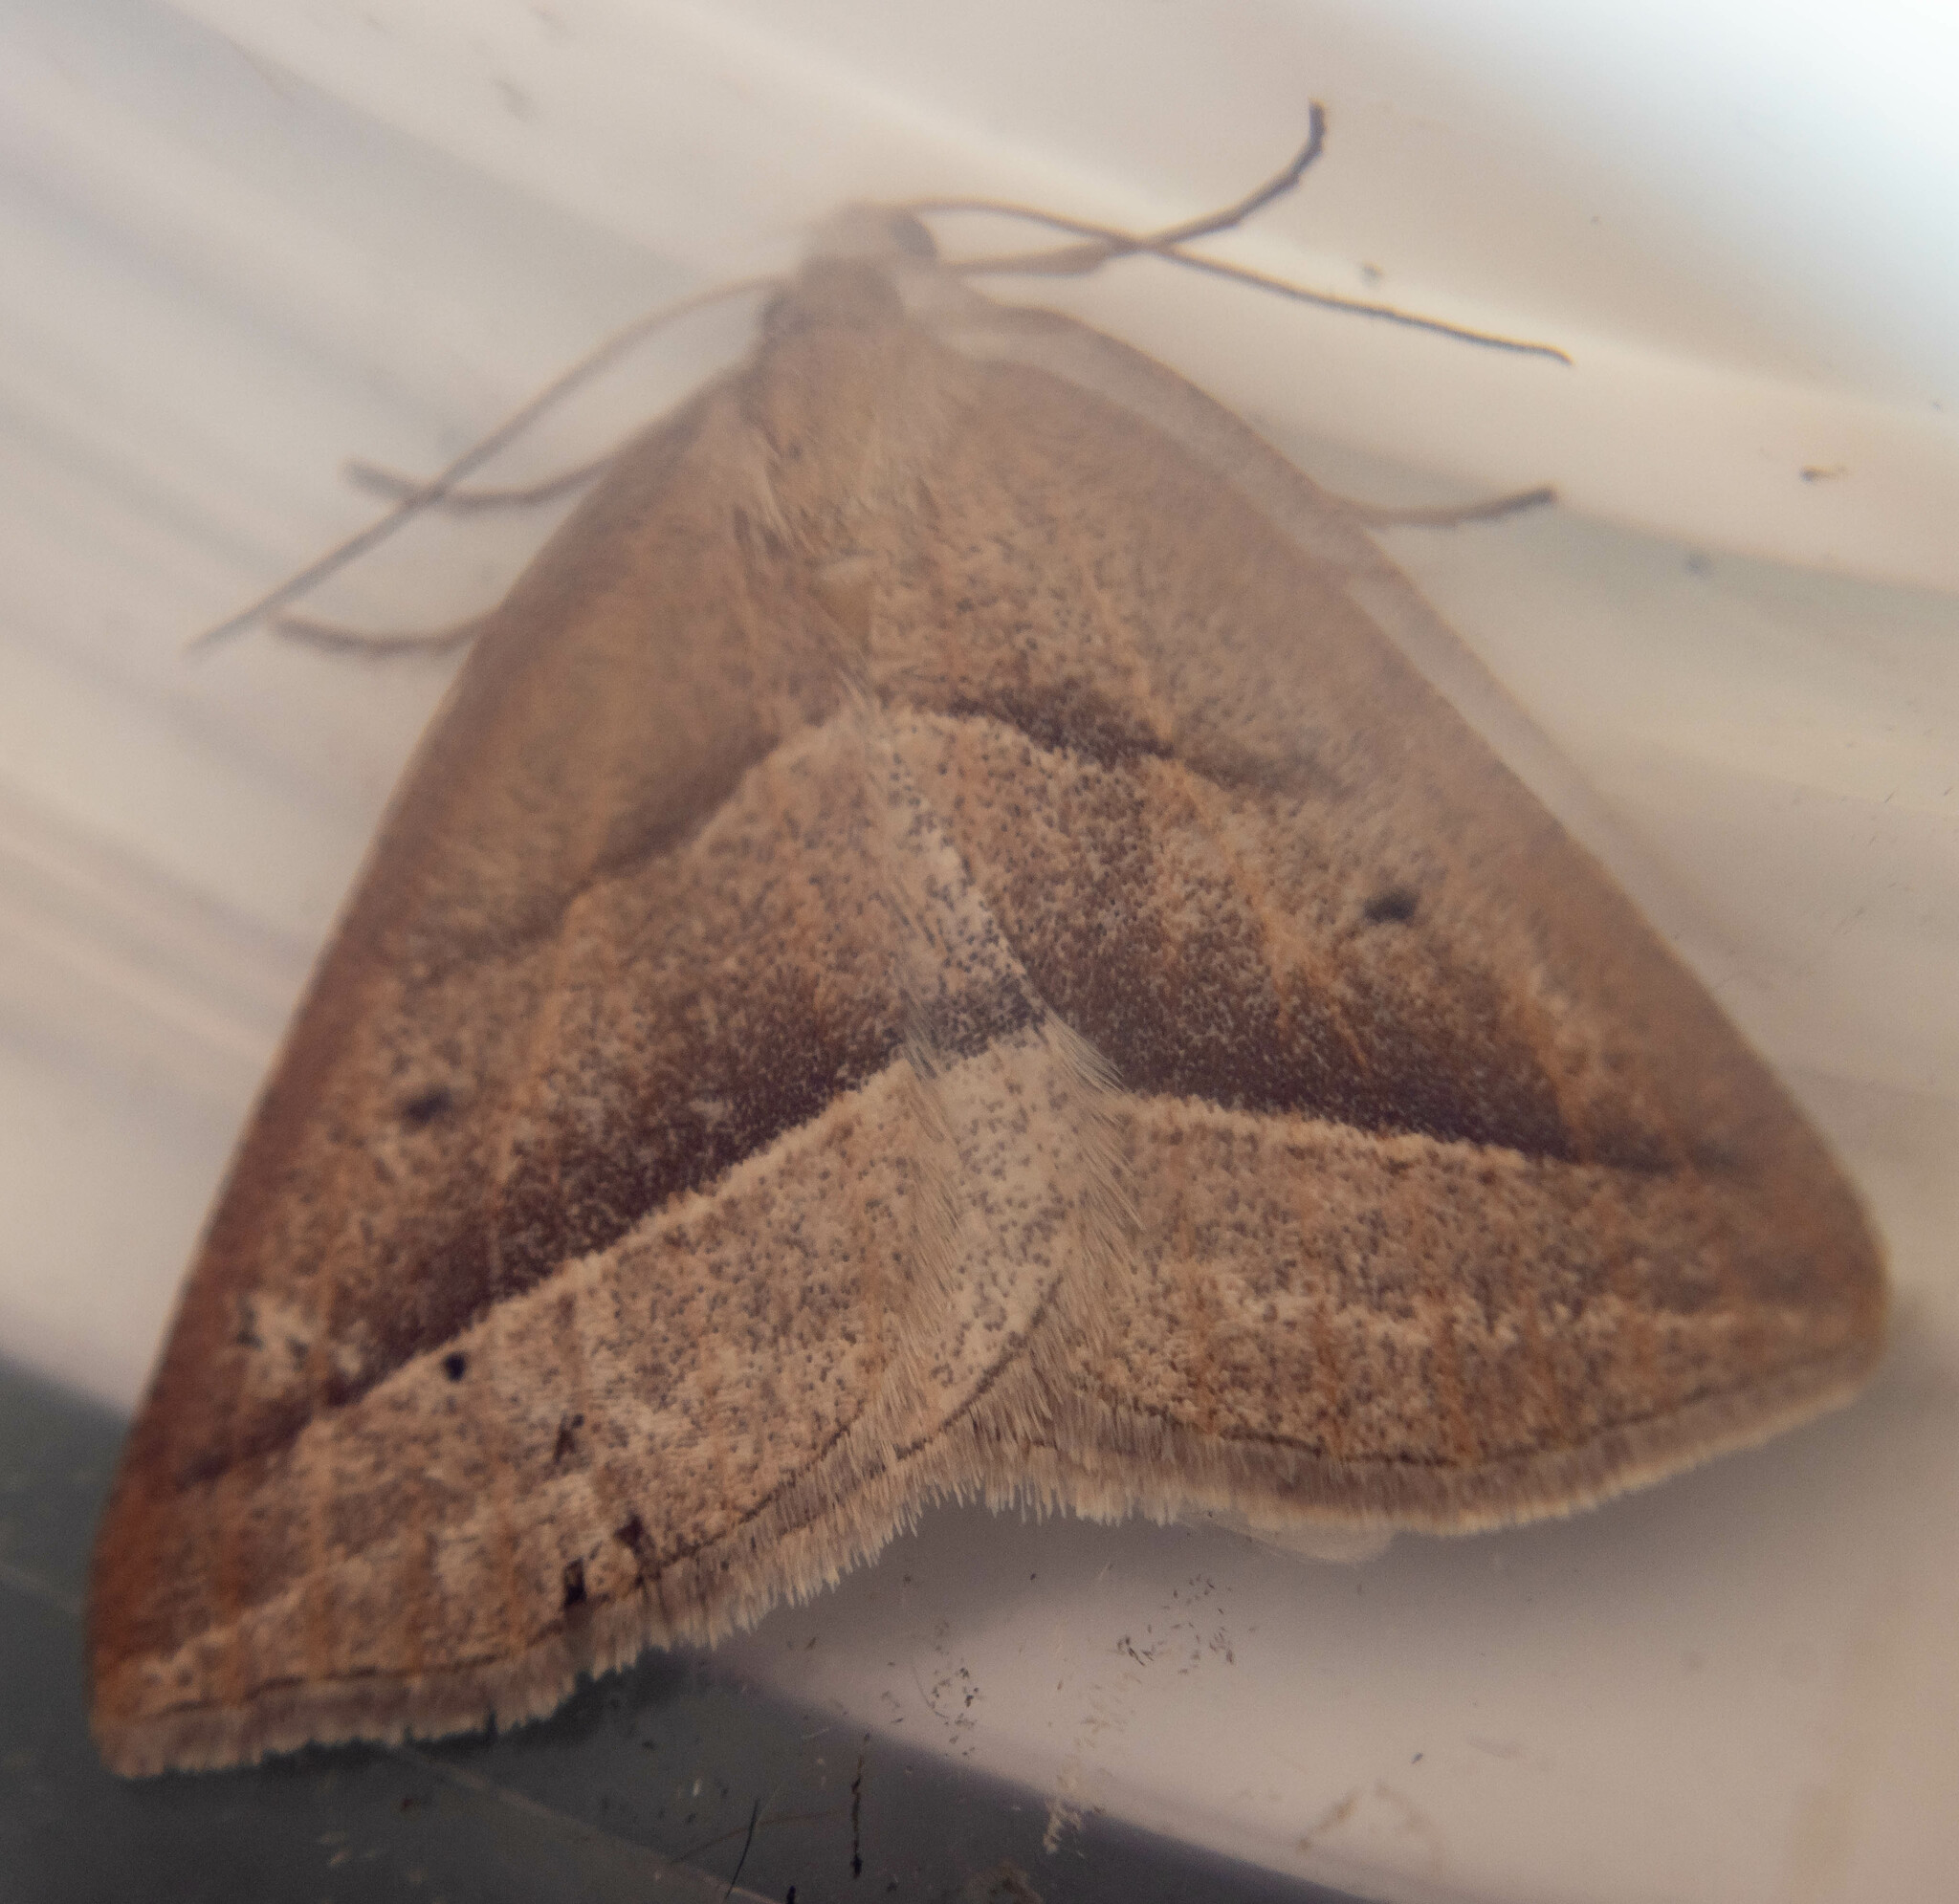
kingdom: Animalia
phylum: Arthropoda
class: Insecta
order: Lepidoptera
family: Pterophoridae
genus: Pterophorus
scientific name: Pterophorus Petrophora chlorosata
